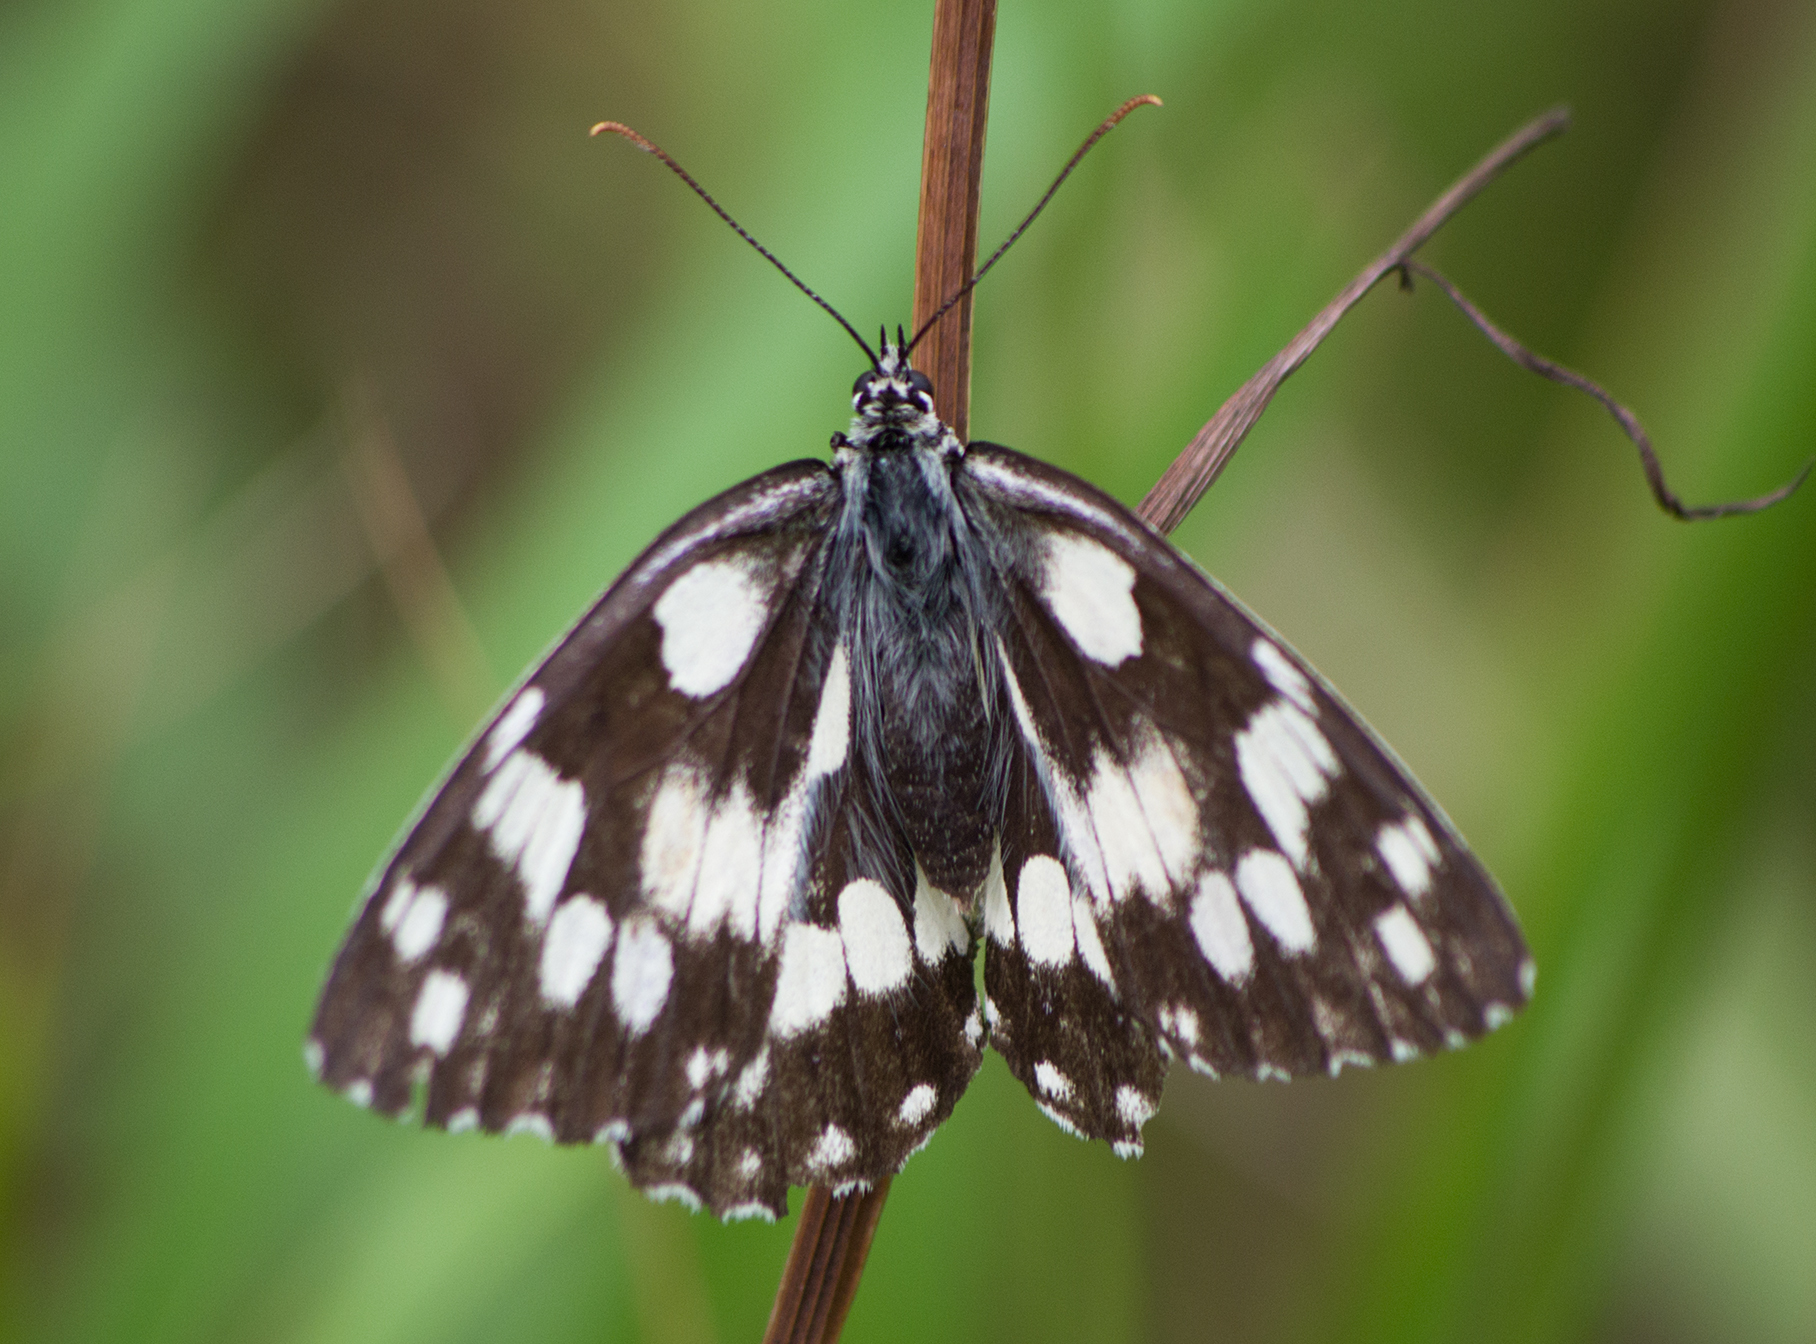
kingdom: Animalia
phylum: Arthropoda
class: Insecta
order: Lepidoptera
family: Nymphalidae
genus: Melanargia
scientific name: Melanargia galathea
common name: Marbled white
